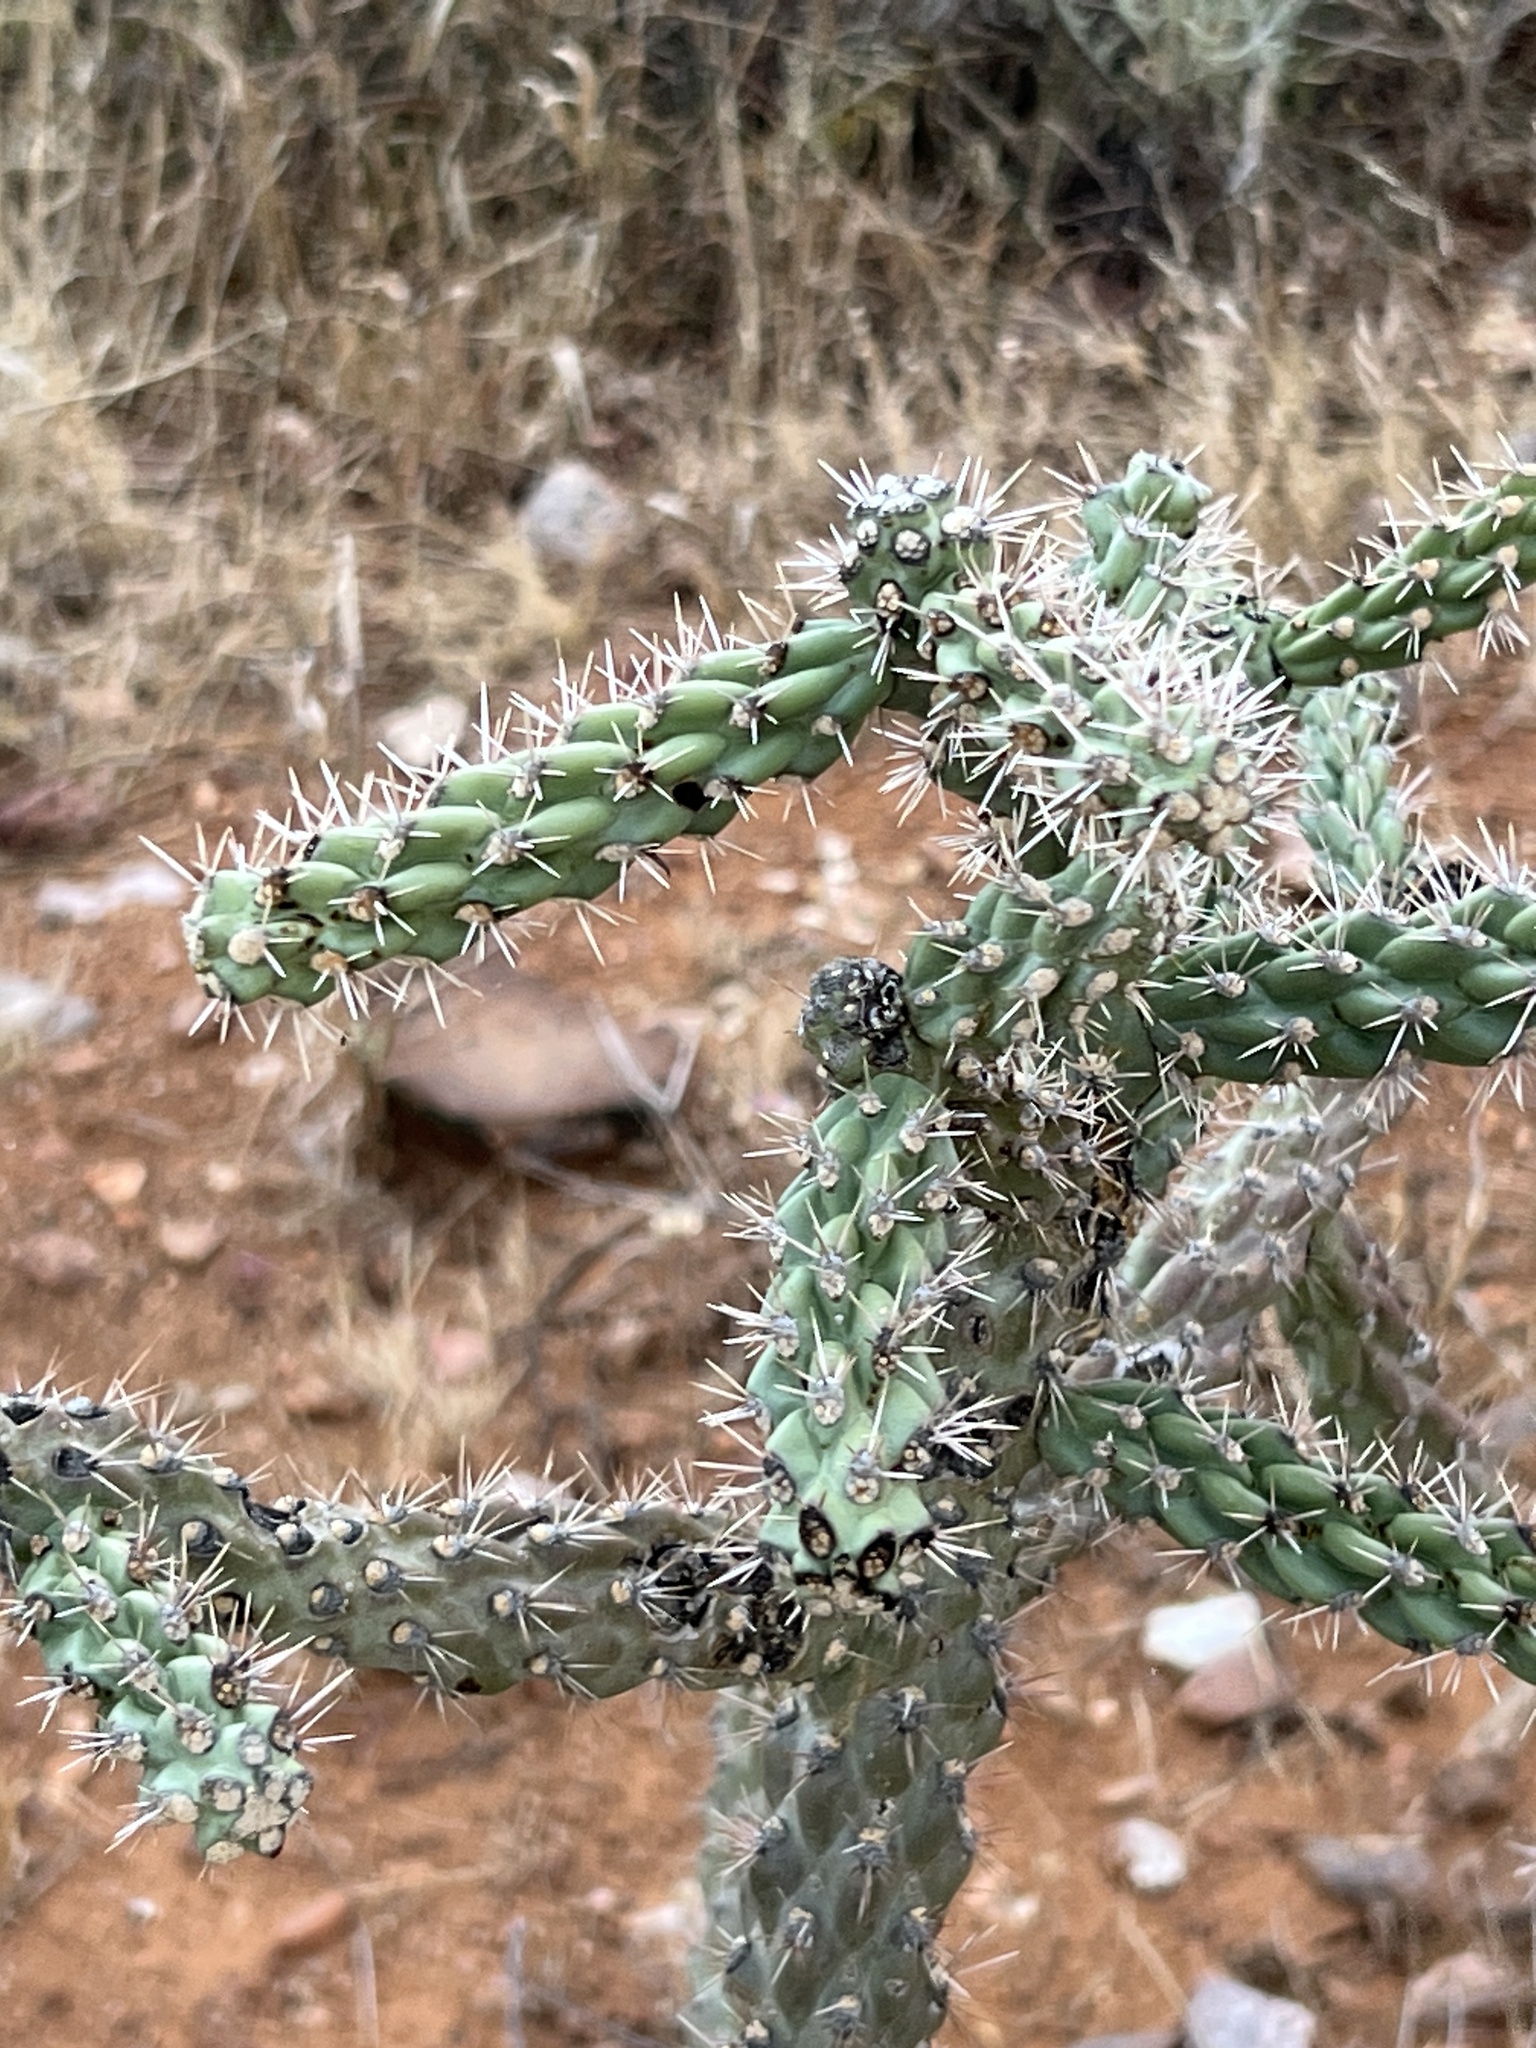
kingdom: Plantae
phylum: Tracheophyta
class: Magnoliopsida
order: Caryophyllales
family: Cactaceae
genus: Cylindropuntia
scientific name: Cylindropuntia imbricata
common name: Candelabrum cactus
